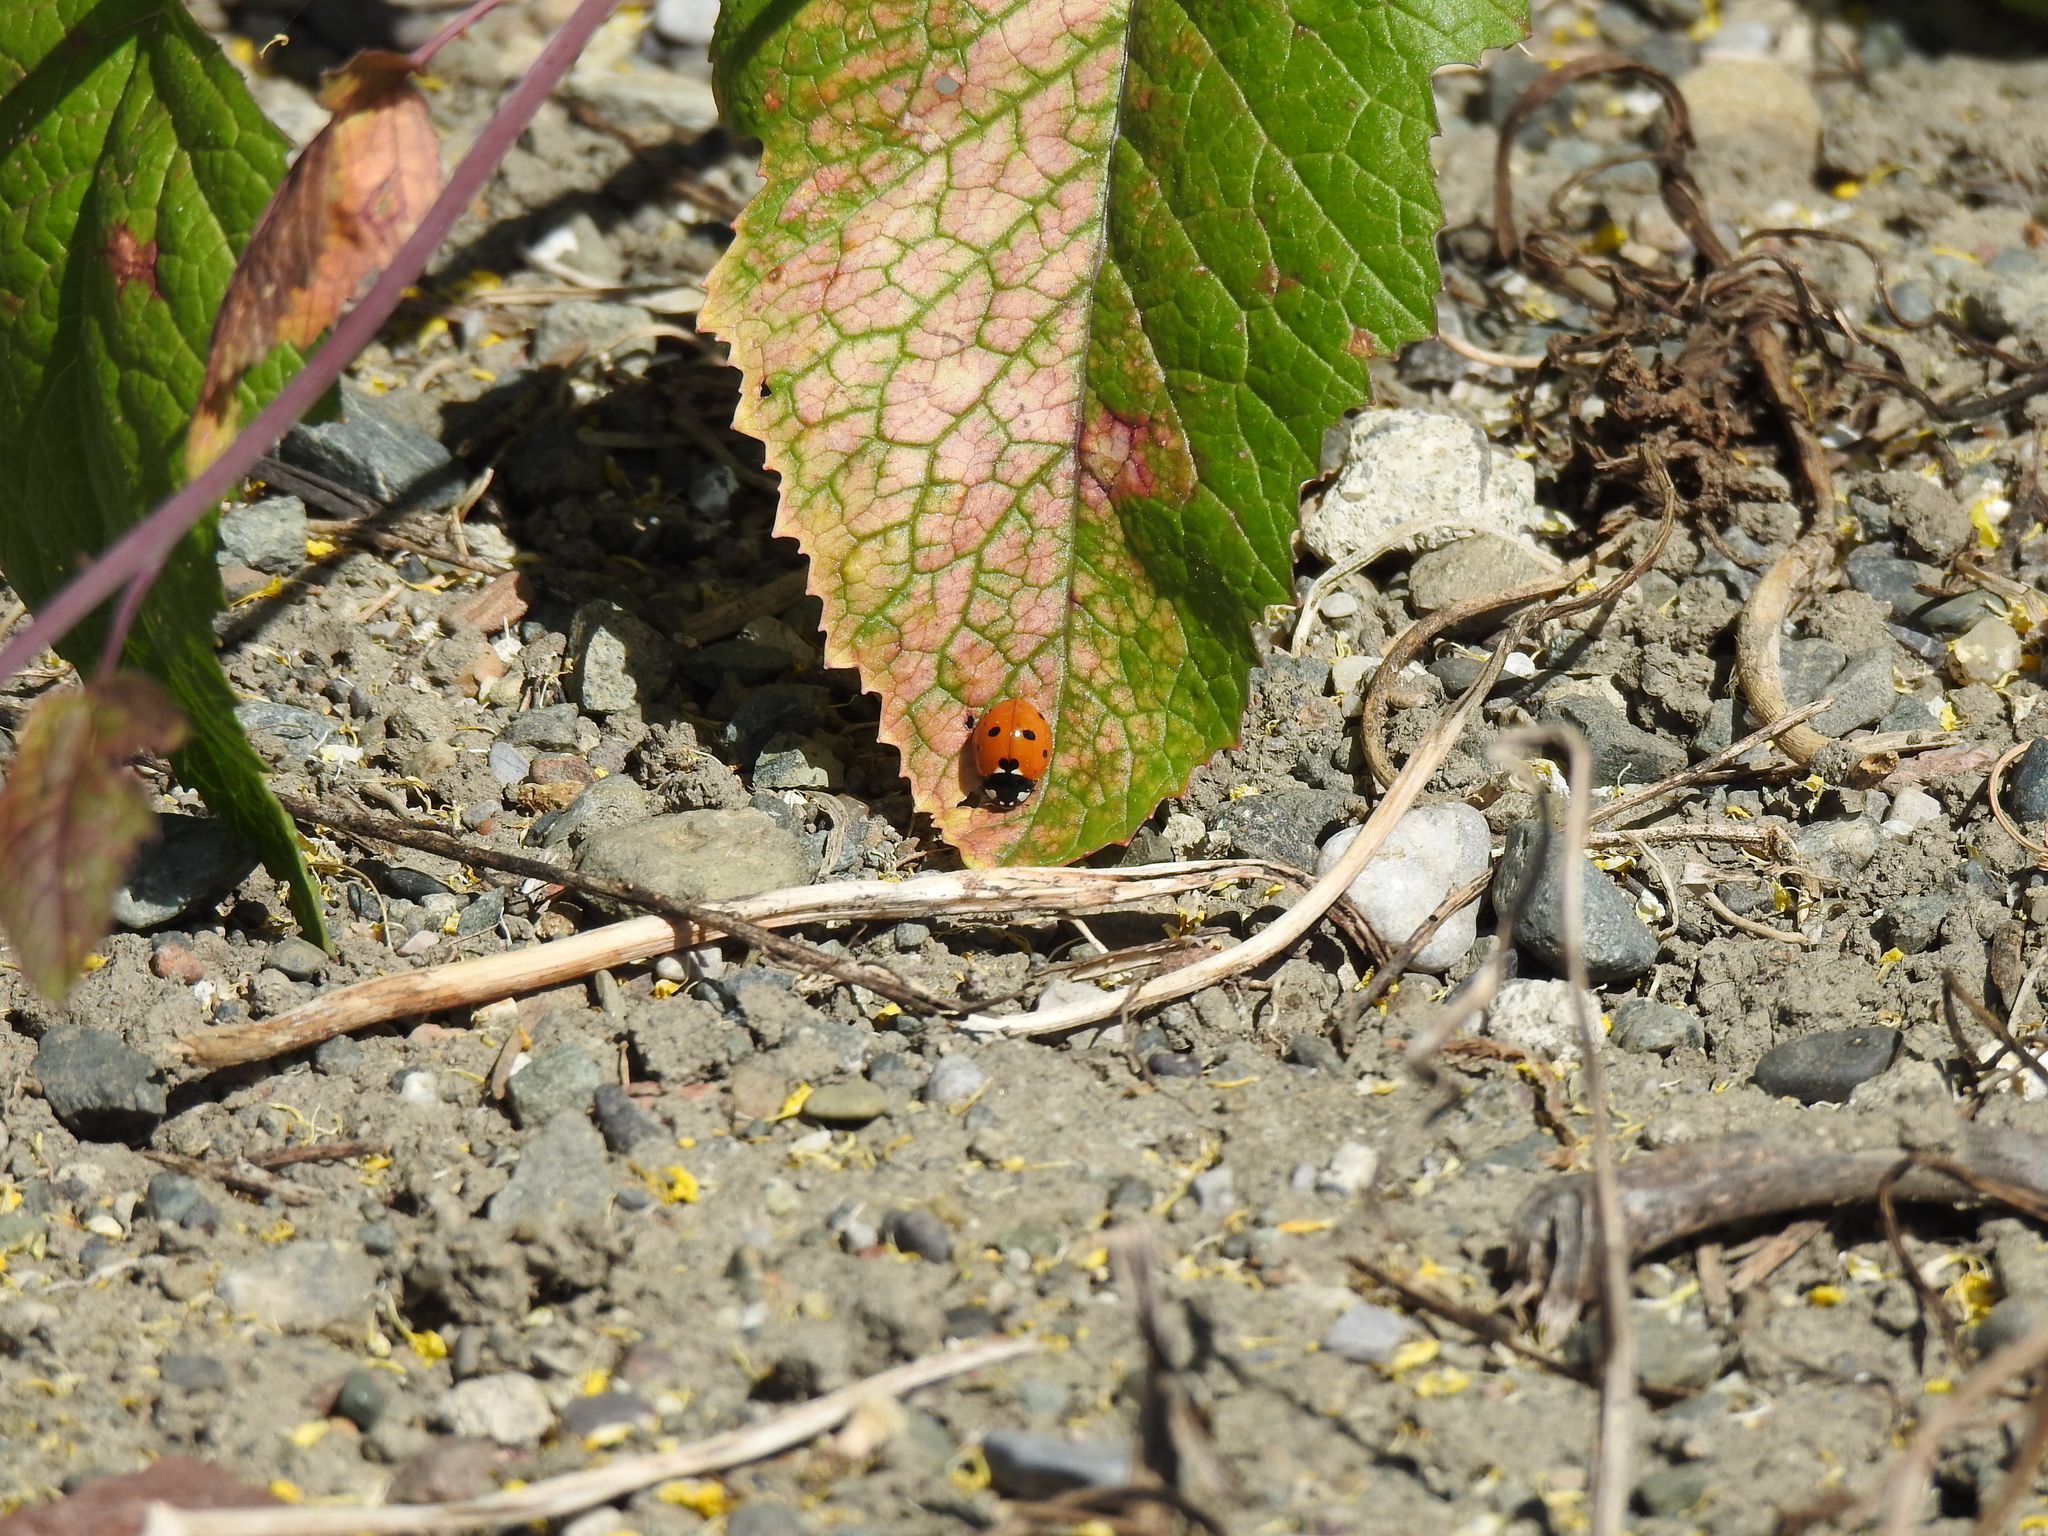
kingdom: Animalia
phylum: Arthropoda
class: Insecta
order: Coleoptera
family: Coccinellidae
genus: Coccinella
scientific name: Coccinella septempunctata
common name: Sevenspotted lady beetle
